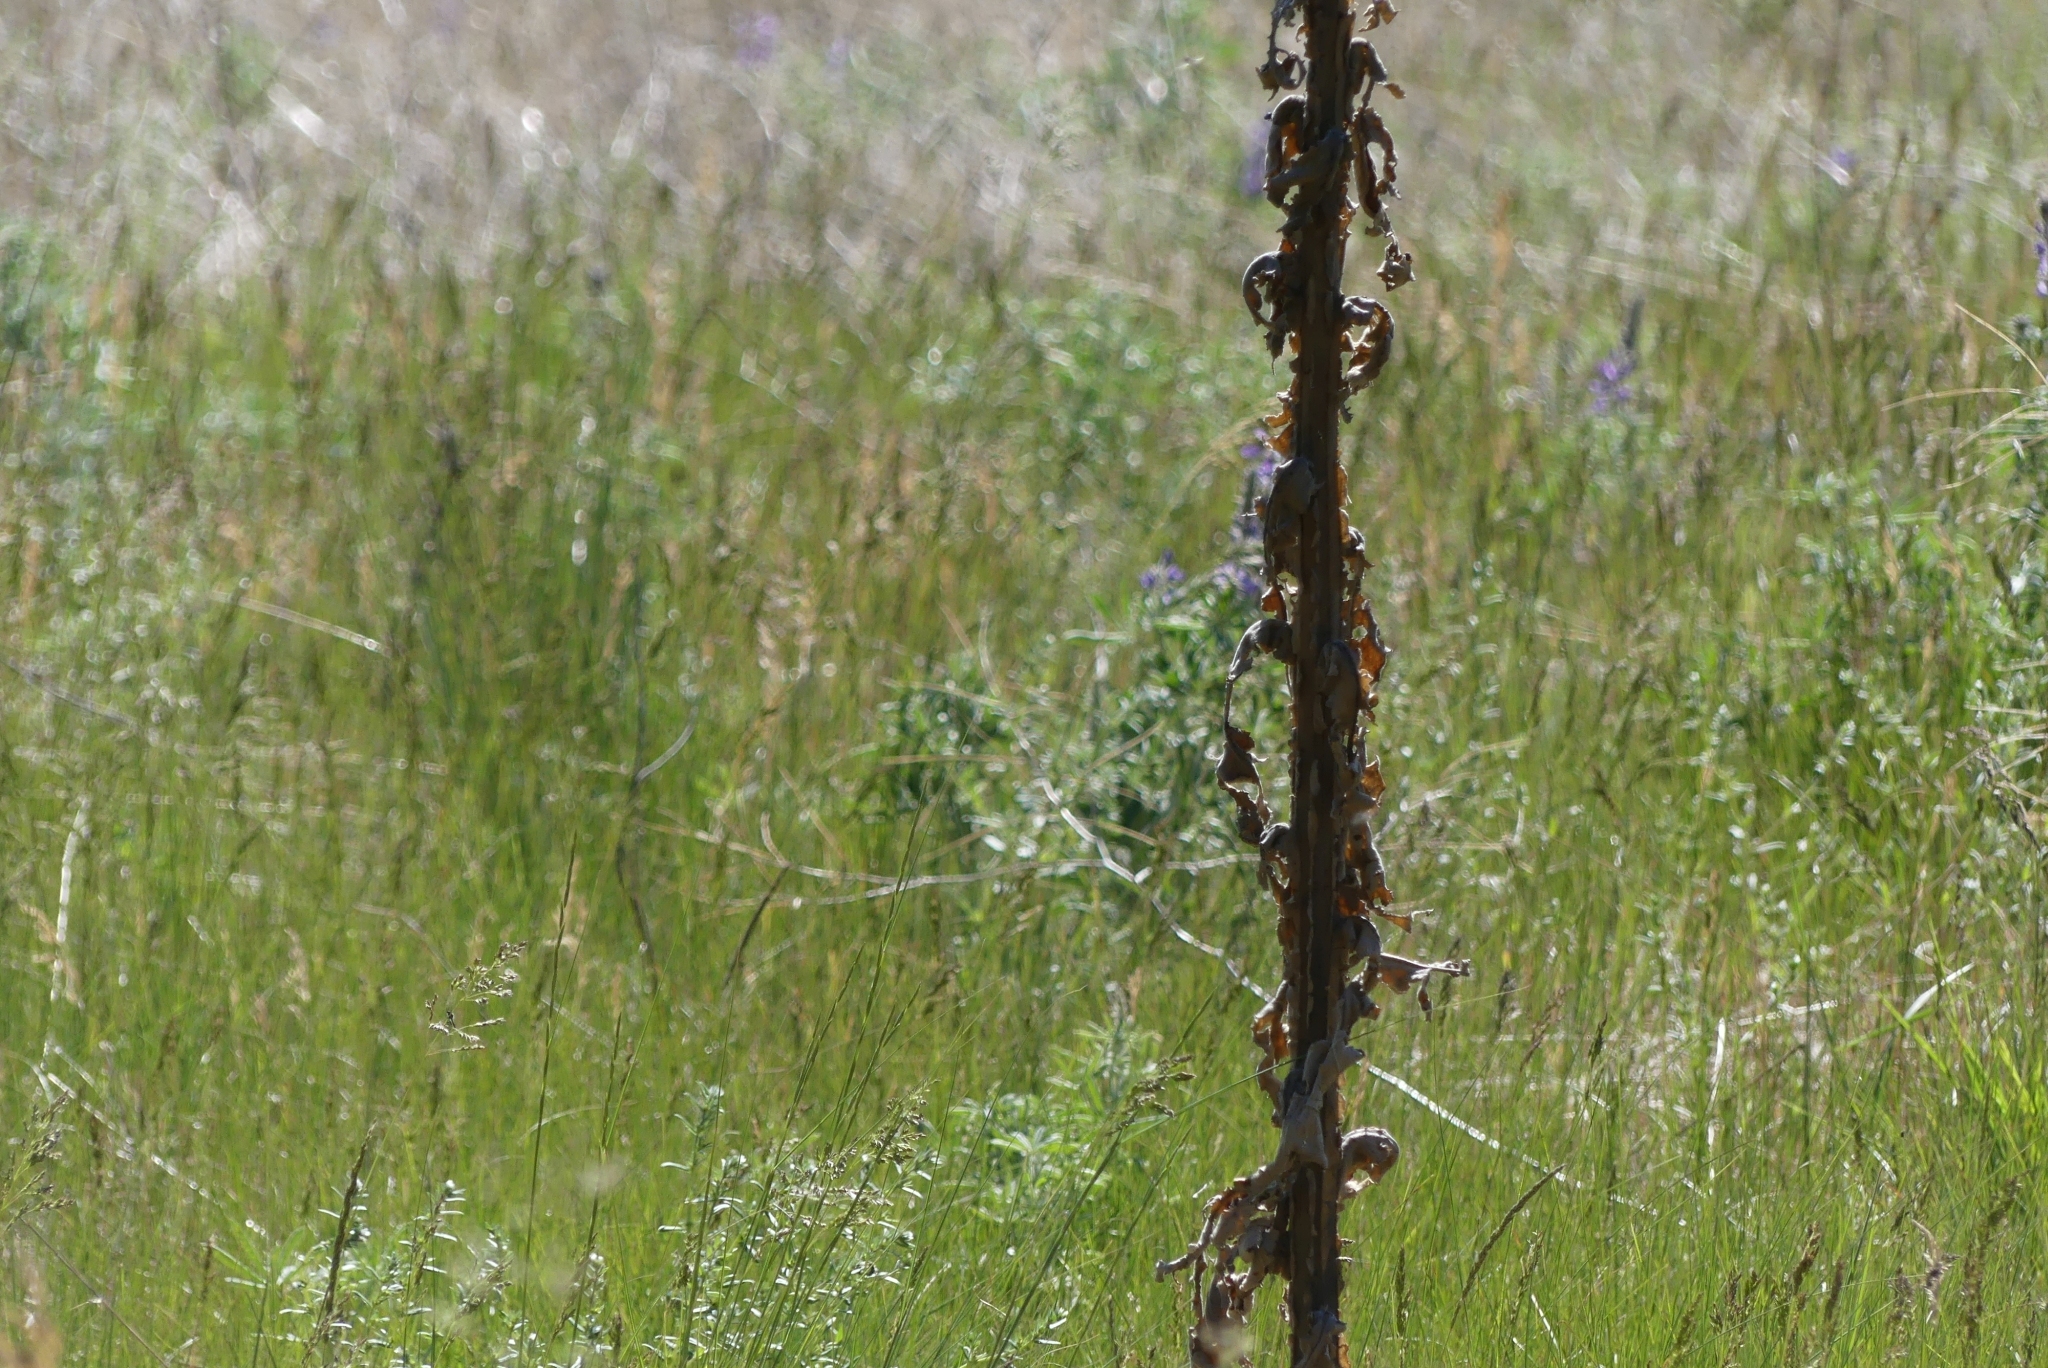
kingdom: Plantae
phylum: Tracheophyta
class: Magnoliopsida
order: Lamiales
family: Scrophulariaceae
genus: Verbascum
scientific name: Verbascum thapsus
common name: Common mullein
